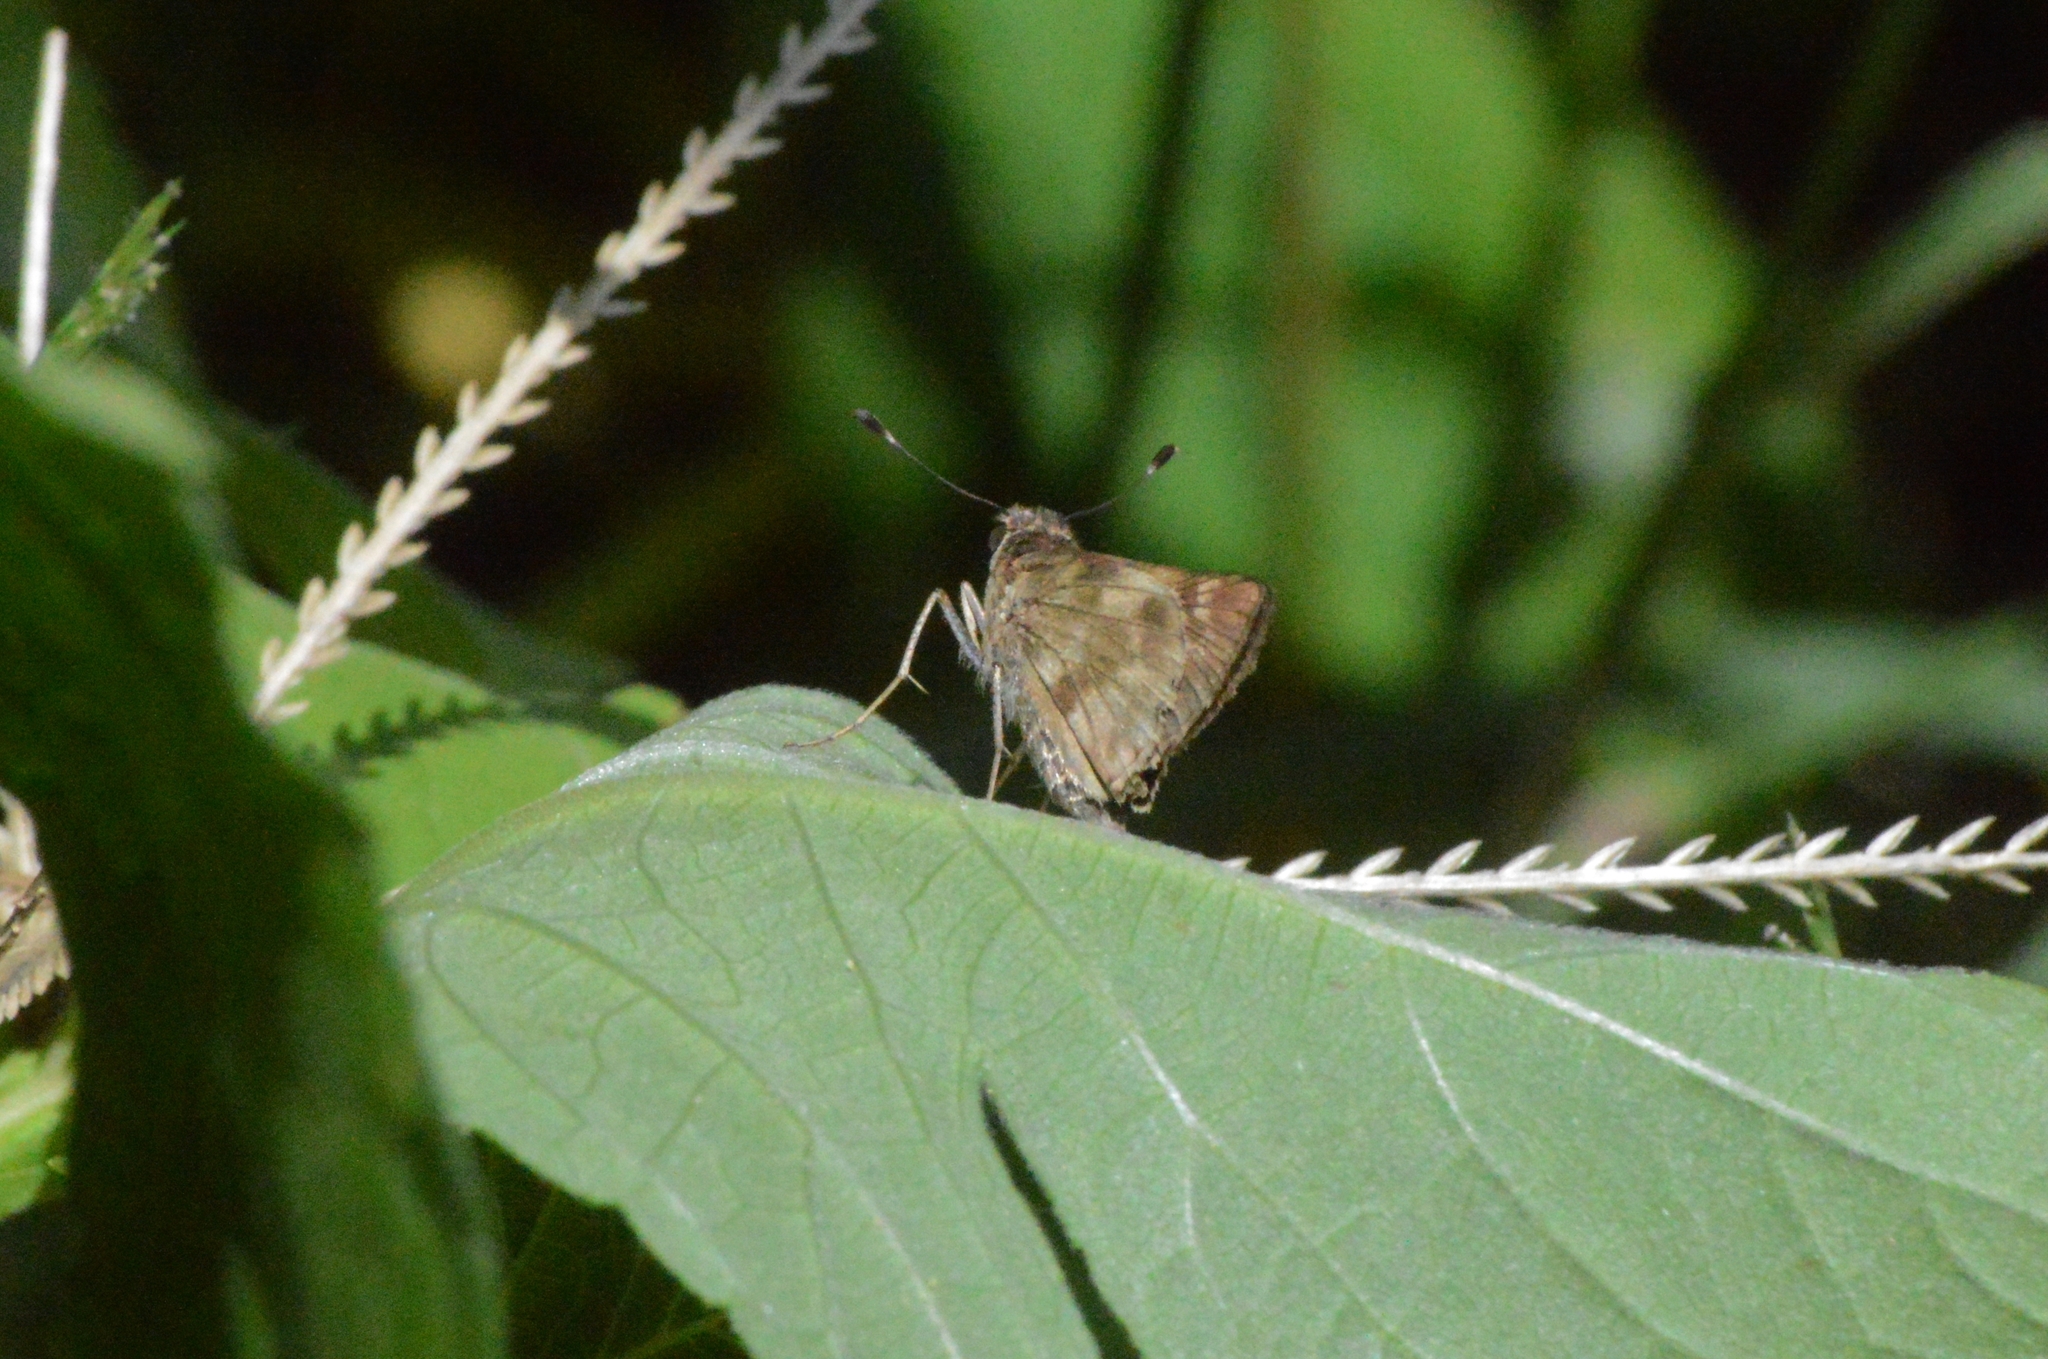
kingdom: Animalia
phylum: Arthropoda
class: Insecta
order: Lepidoptera
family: Hesperiidae
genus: Pompeius
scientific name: Pompeius pompeius
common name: Pompeius skipper
